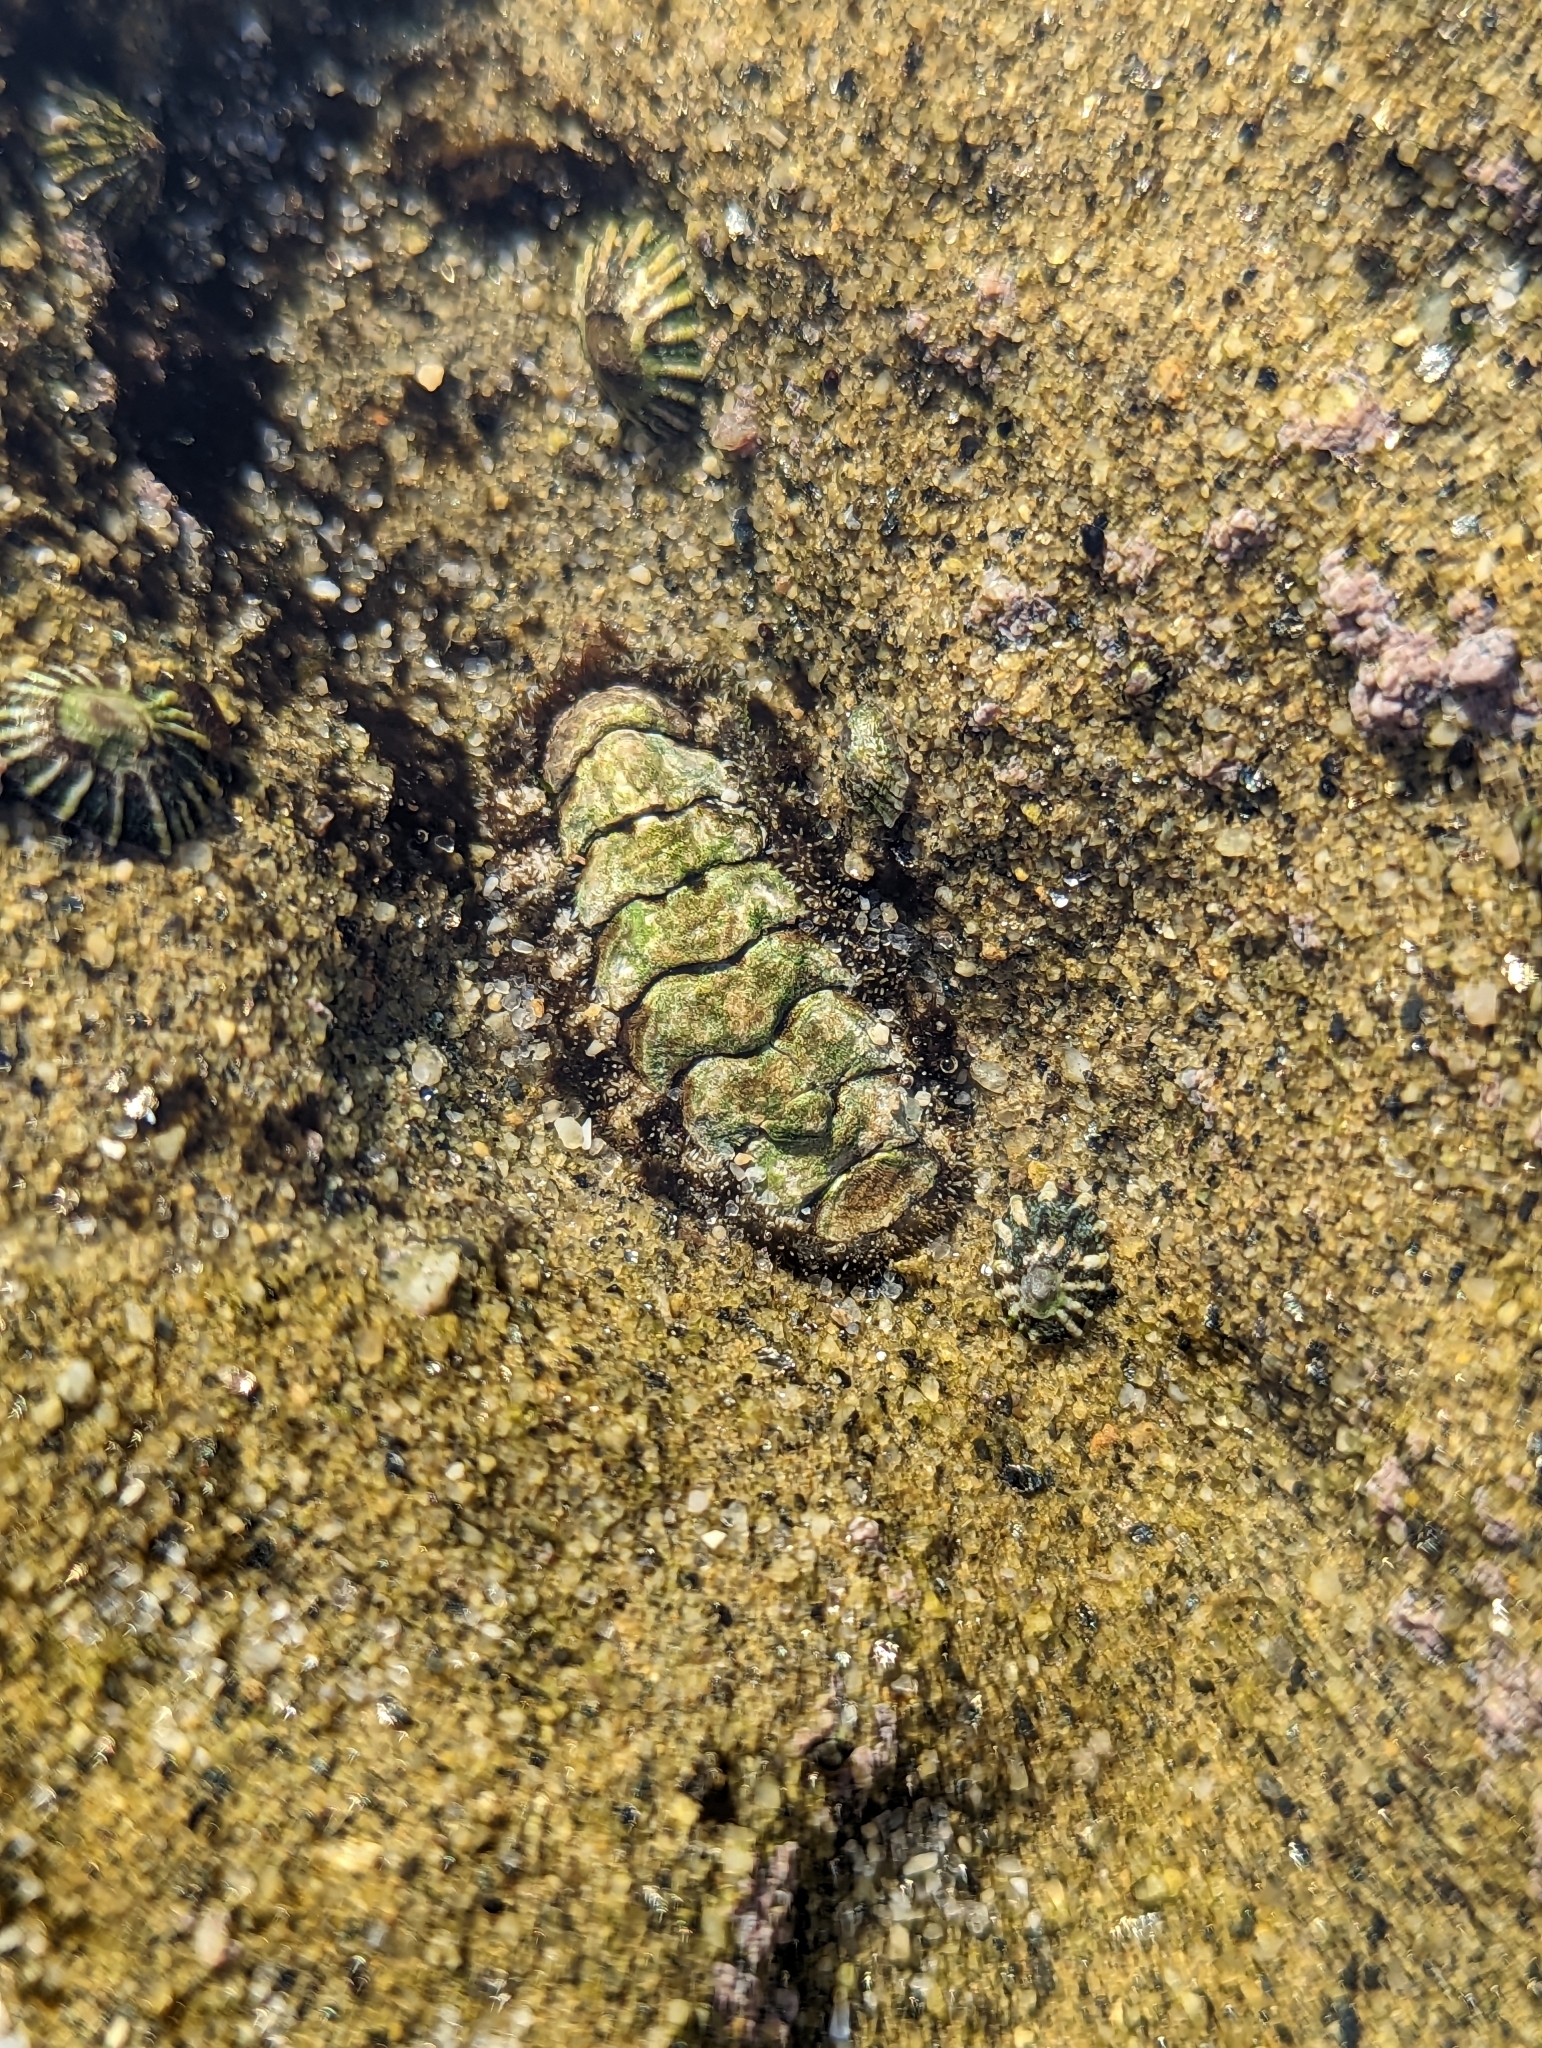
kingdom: Animalia
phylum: Mollusca
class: Polyplacophora
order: Chitonida
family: Tonicellidae
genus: Nuttallina
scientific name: Nuttallina californica
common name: California nuttall chiton
